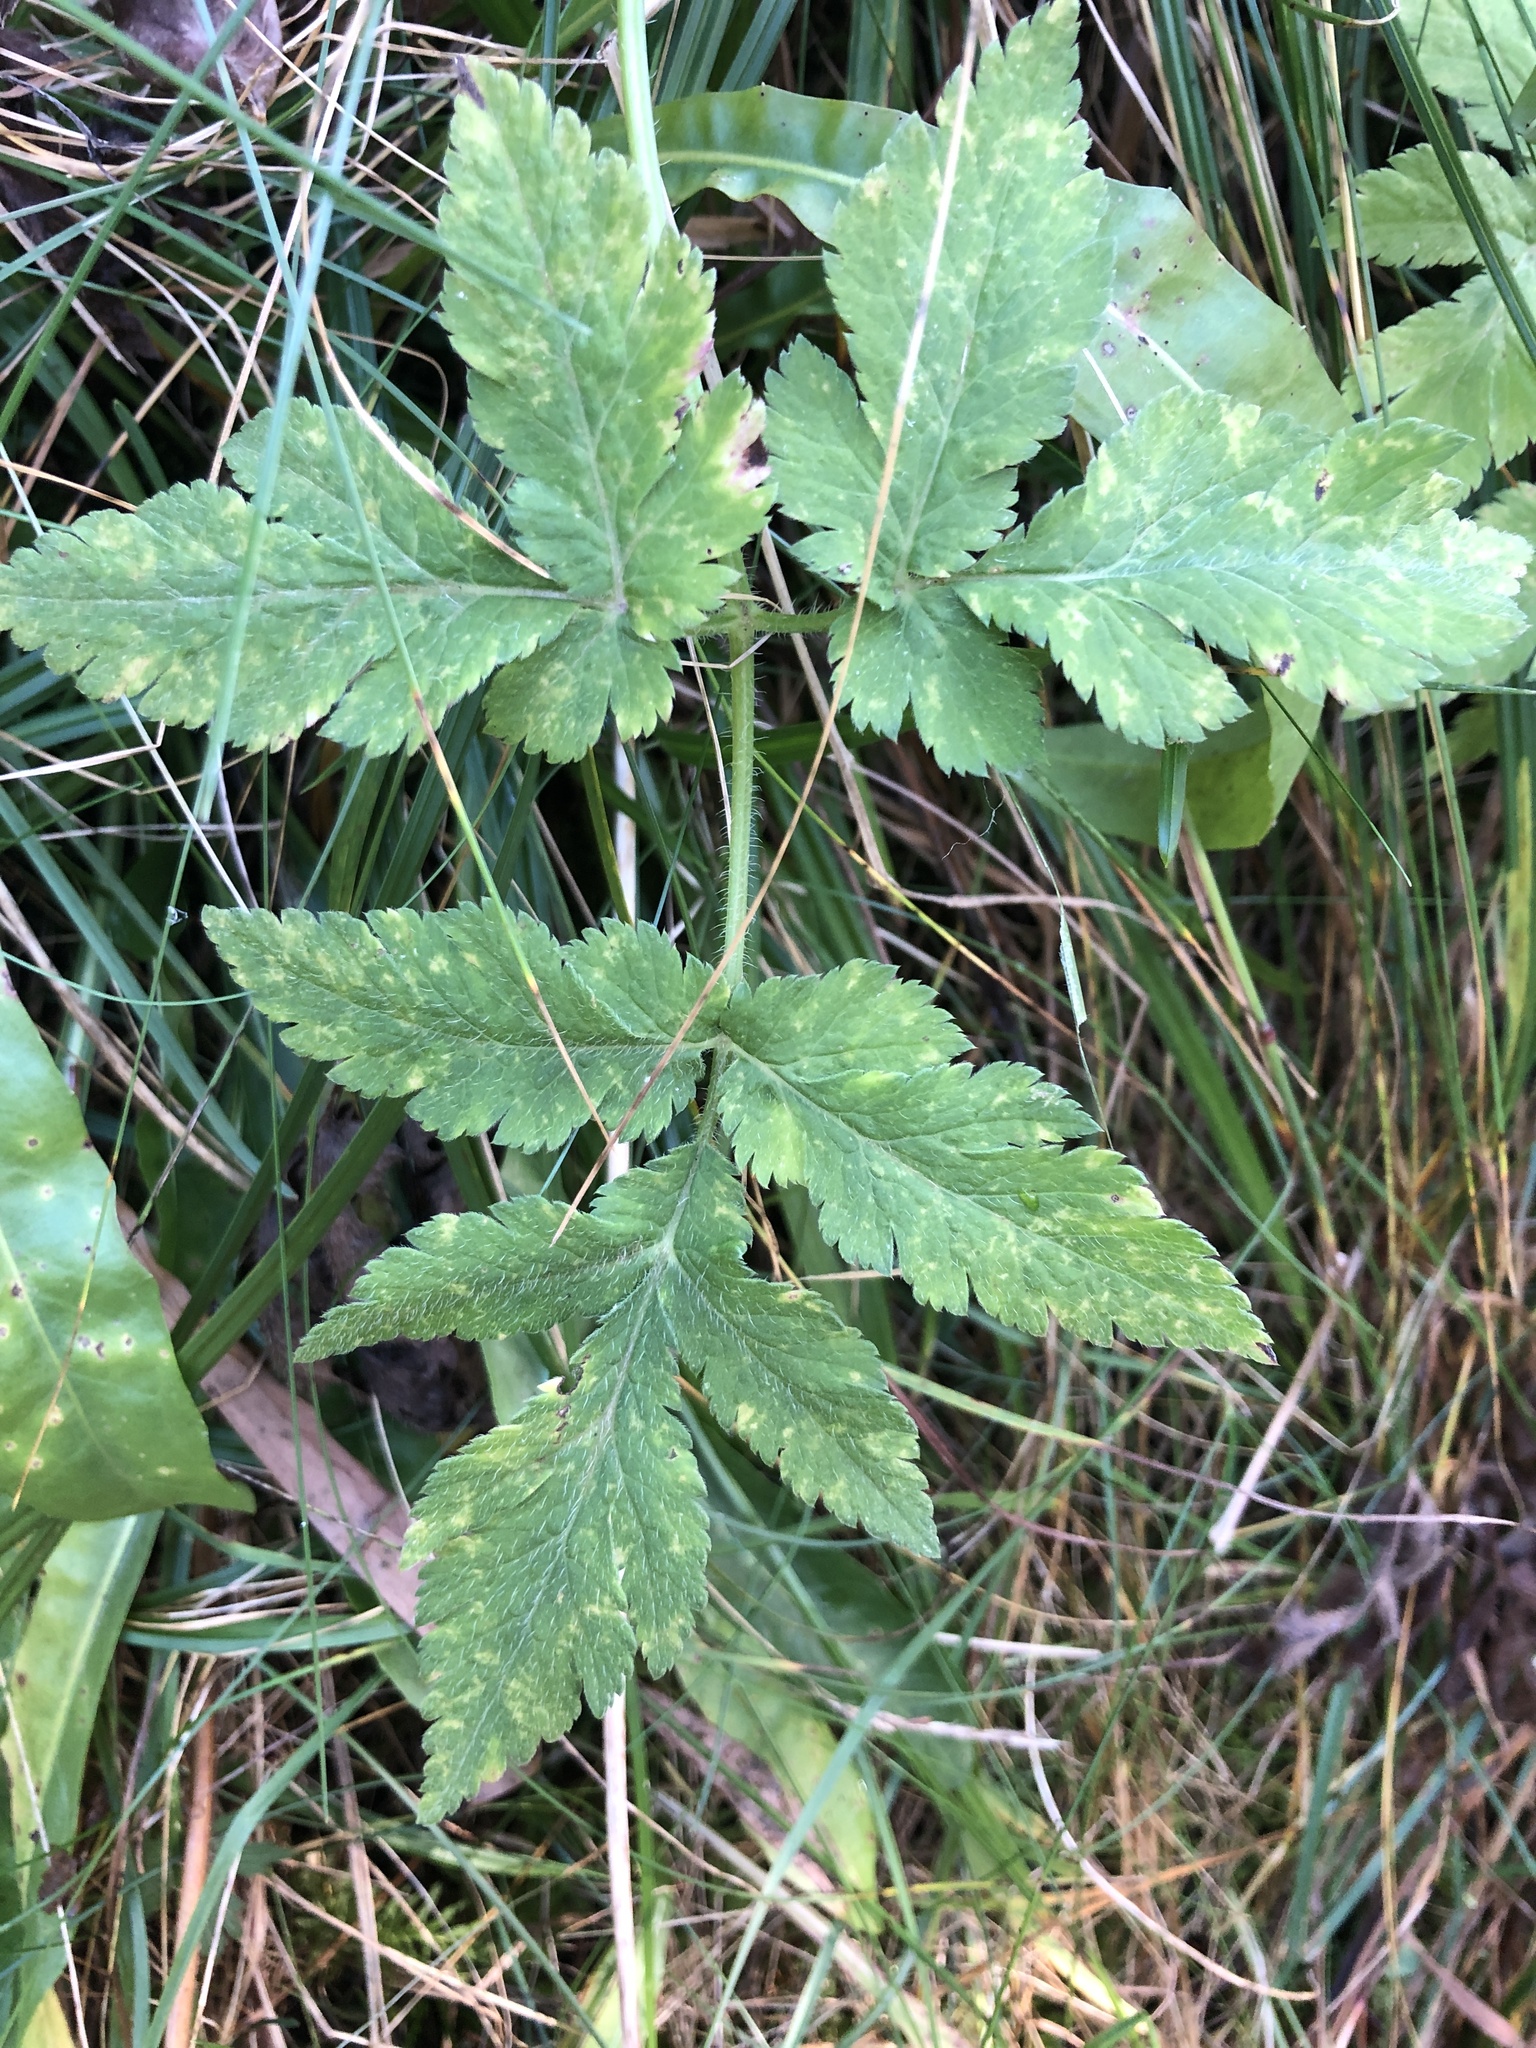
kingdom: Plantae
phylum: Tracheophyta
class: Magnoliopsida
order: Apiales
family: Apiaceae
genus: Chaerophyllum
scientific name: Chaerophyllum hirsutum
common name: Hairy chervil
